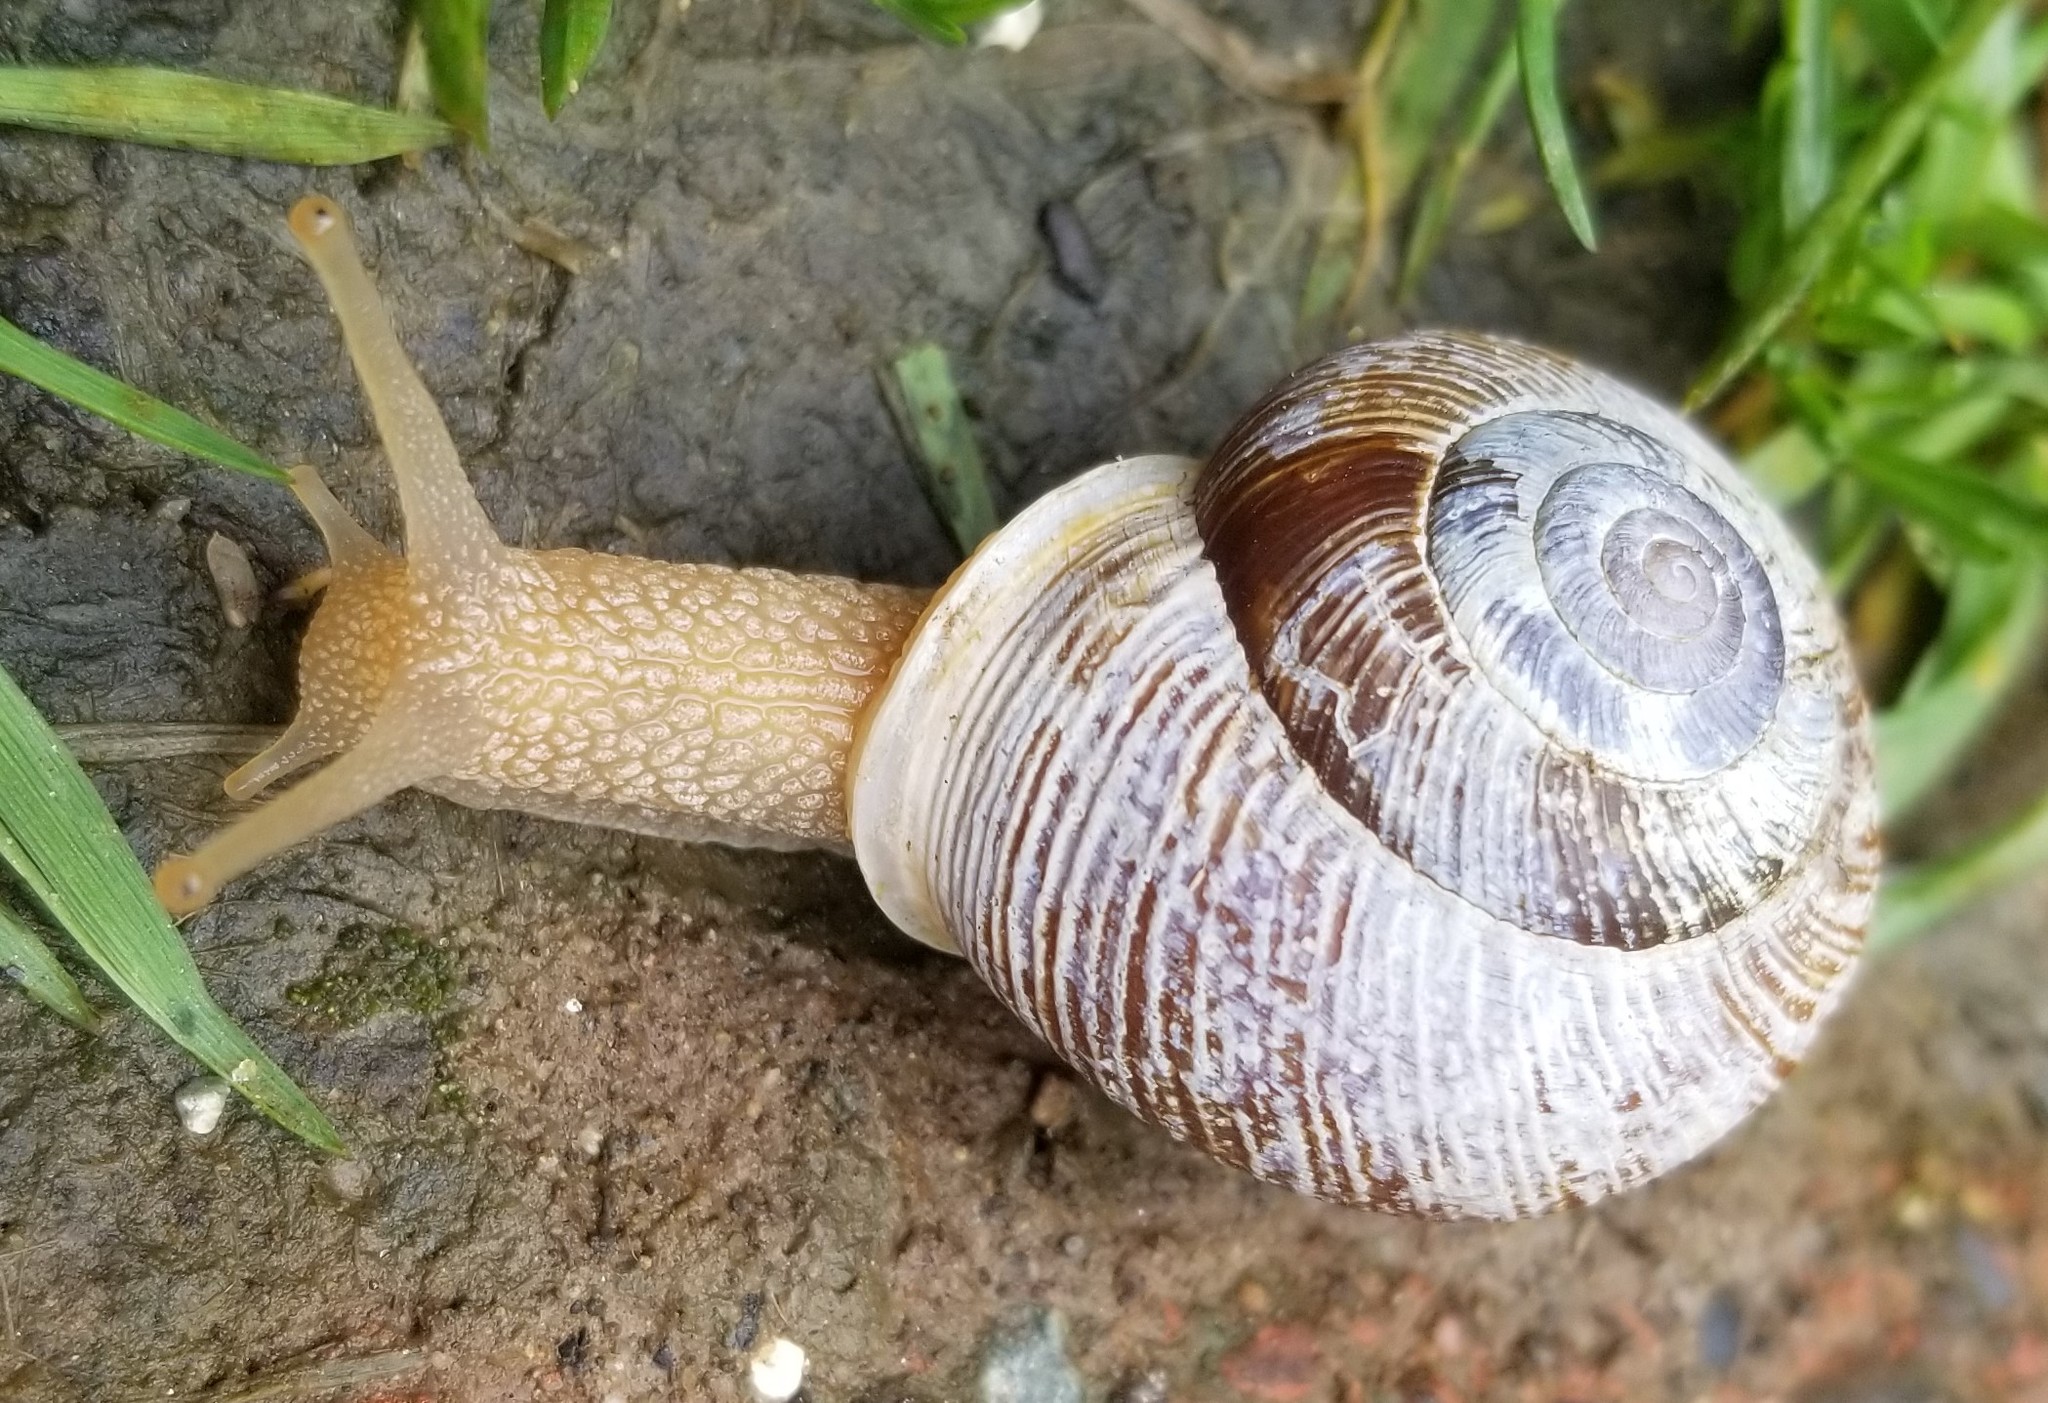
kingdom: Animalia
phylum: Mollusca
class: Gastropoda
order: Stylommatophora
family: Polygyridae
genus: Allogona
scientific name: Allogona townsendiana
